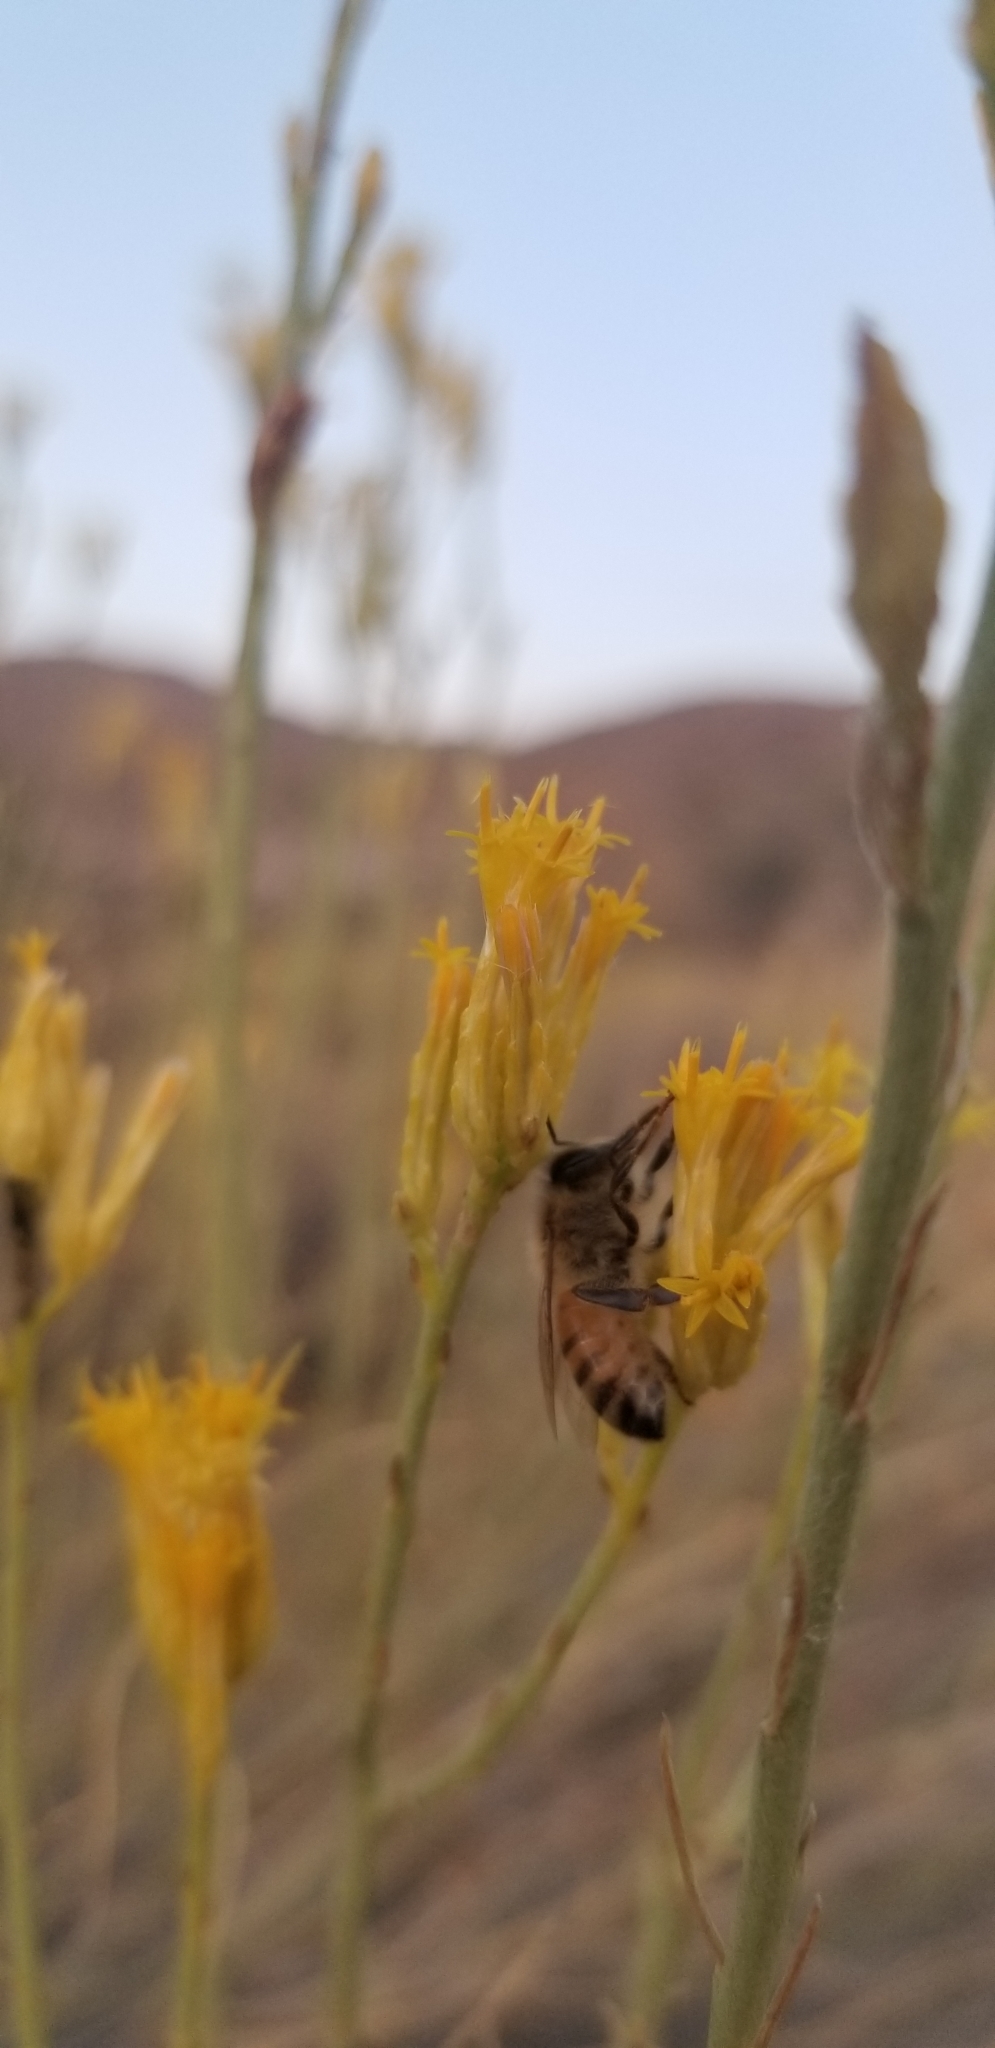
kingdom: Animalia
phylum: Arthropoda
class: Insecta
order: Hymenoptera
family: Apidae
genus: Apis
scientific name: Apis mellifera
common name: Honey bee
